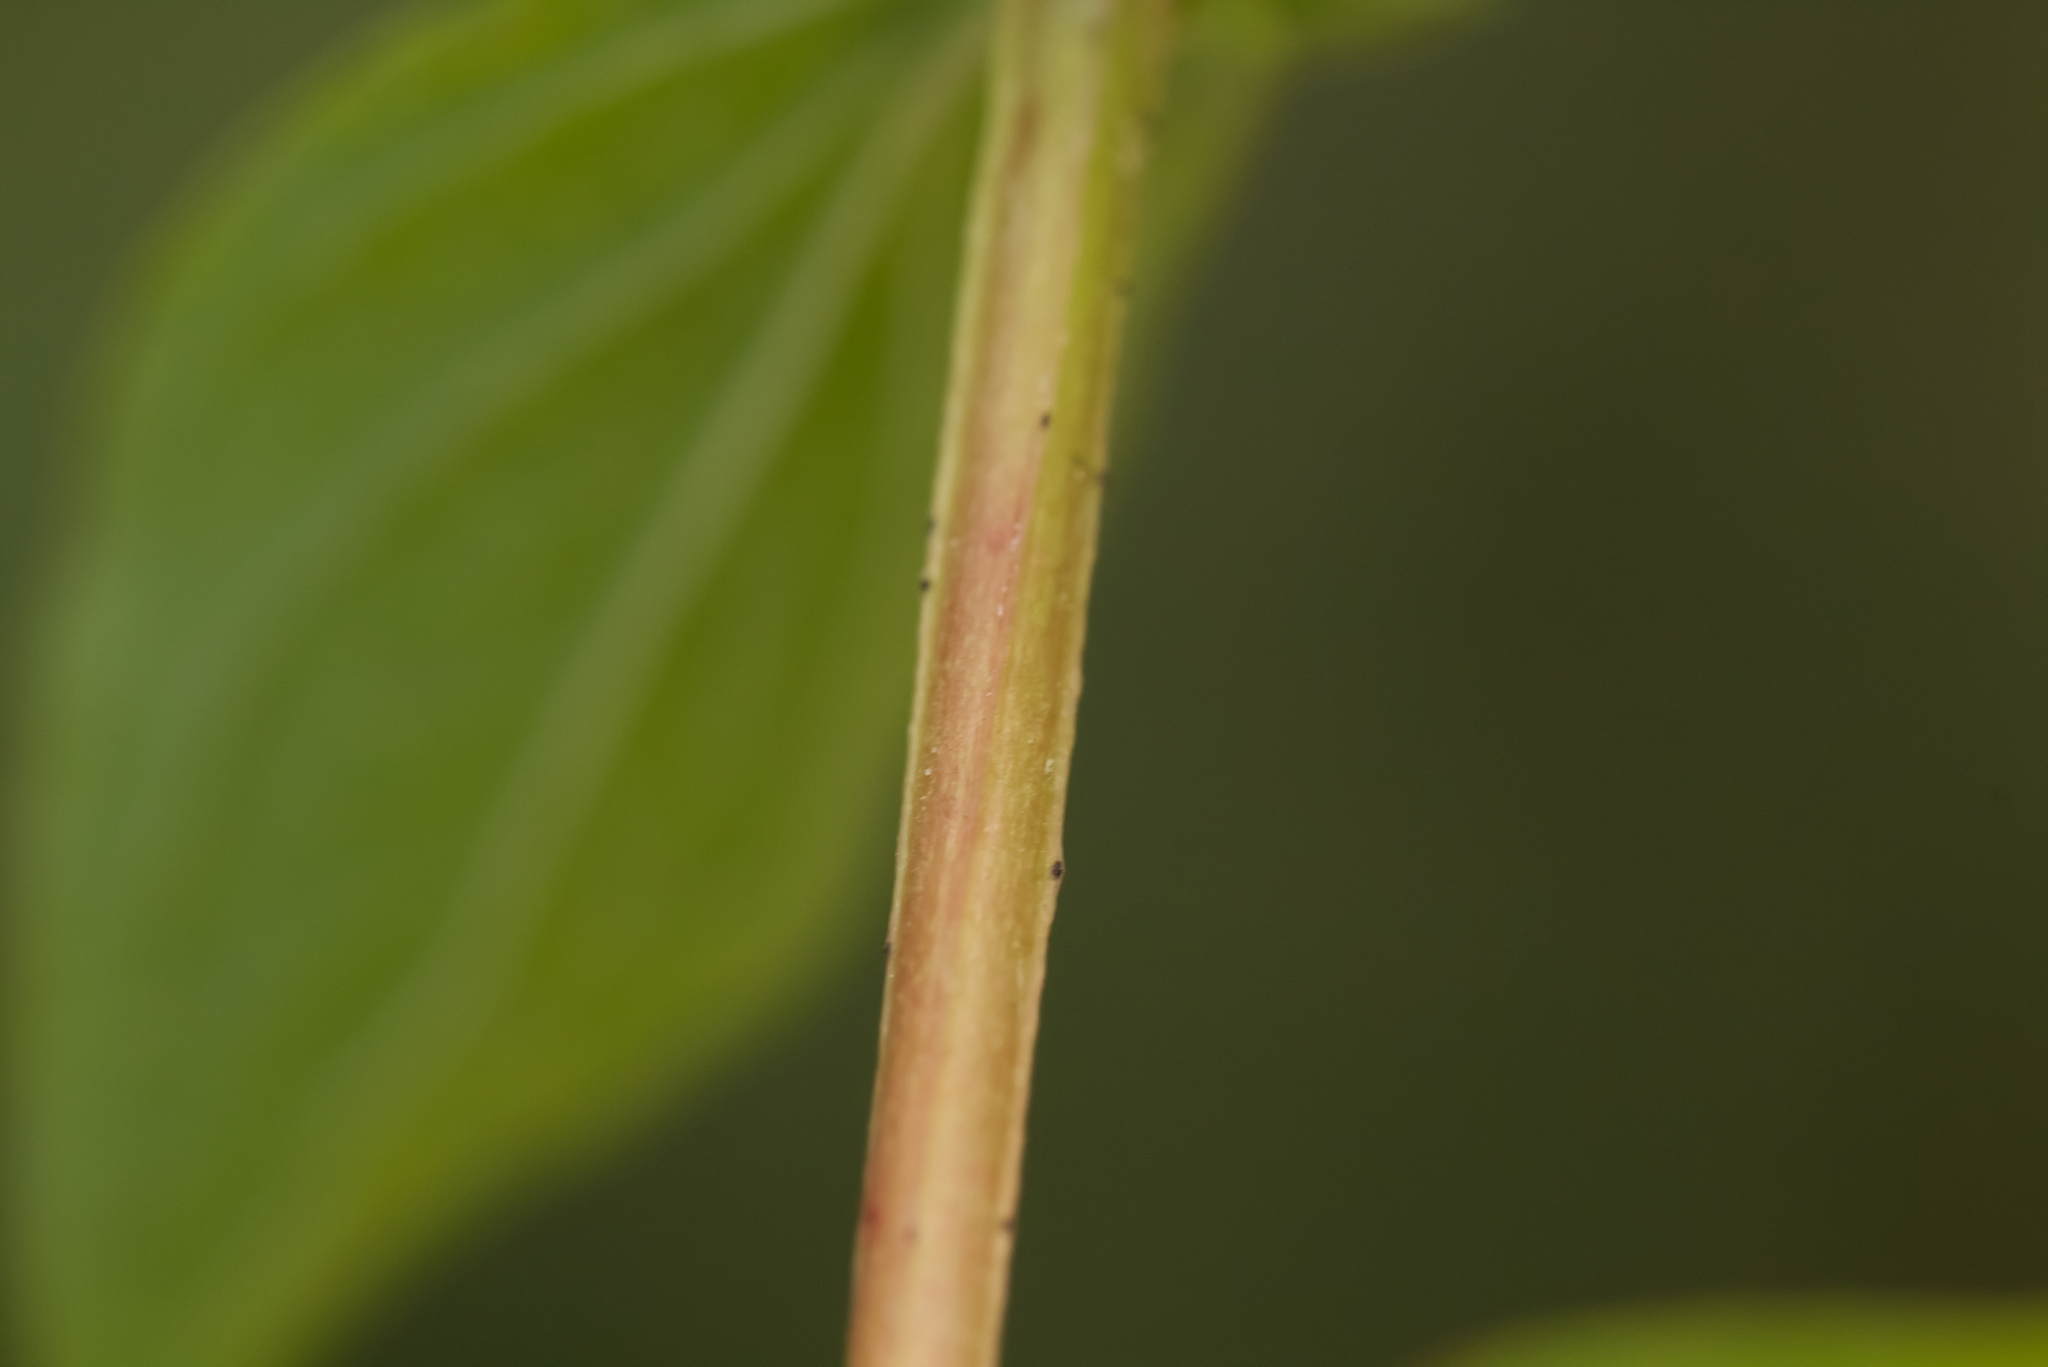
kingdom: Plantae
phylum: Tracheophyta
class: Magnoliopsida
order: Malpighiales
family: Hypericaceae
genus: Hypericum
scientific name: Hypericum maculatum
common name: Imperforate st. john's-wort
